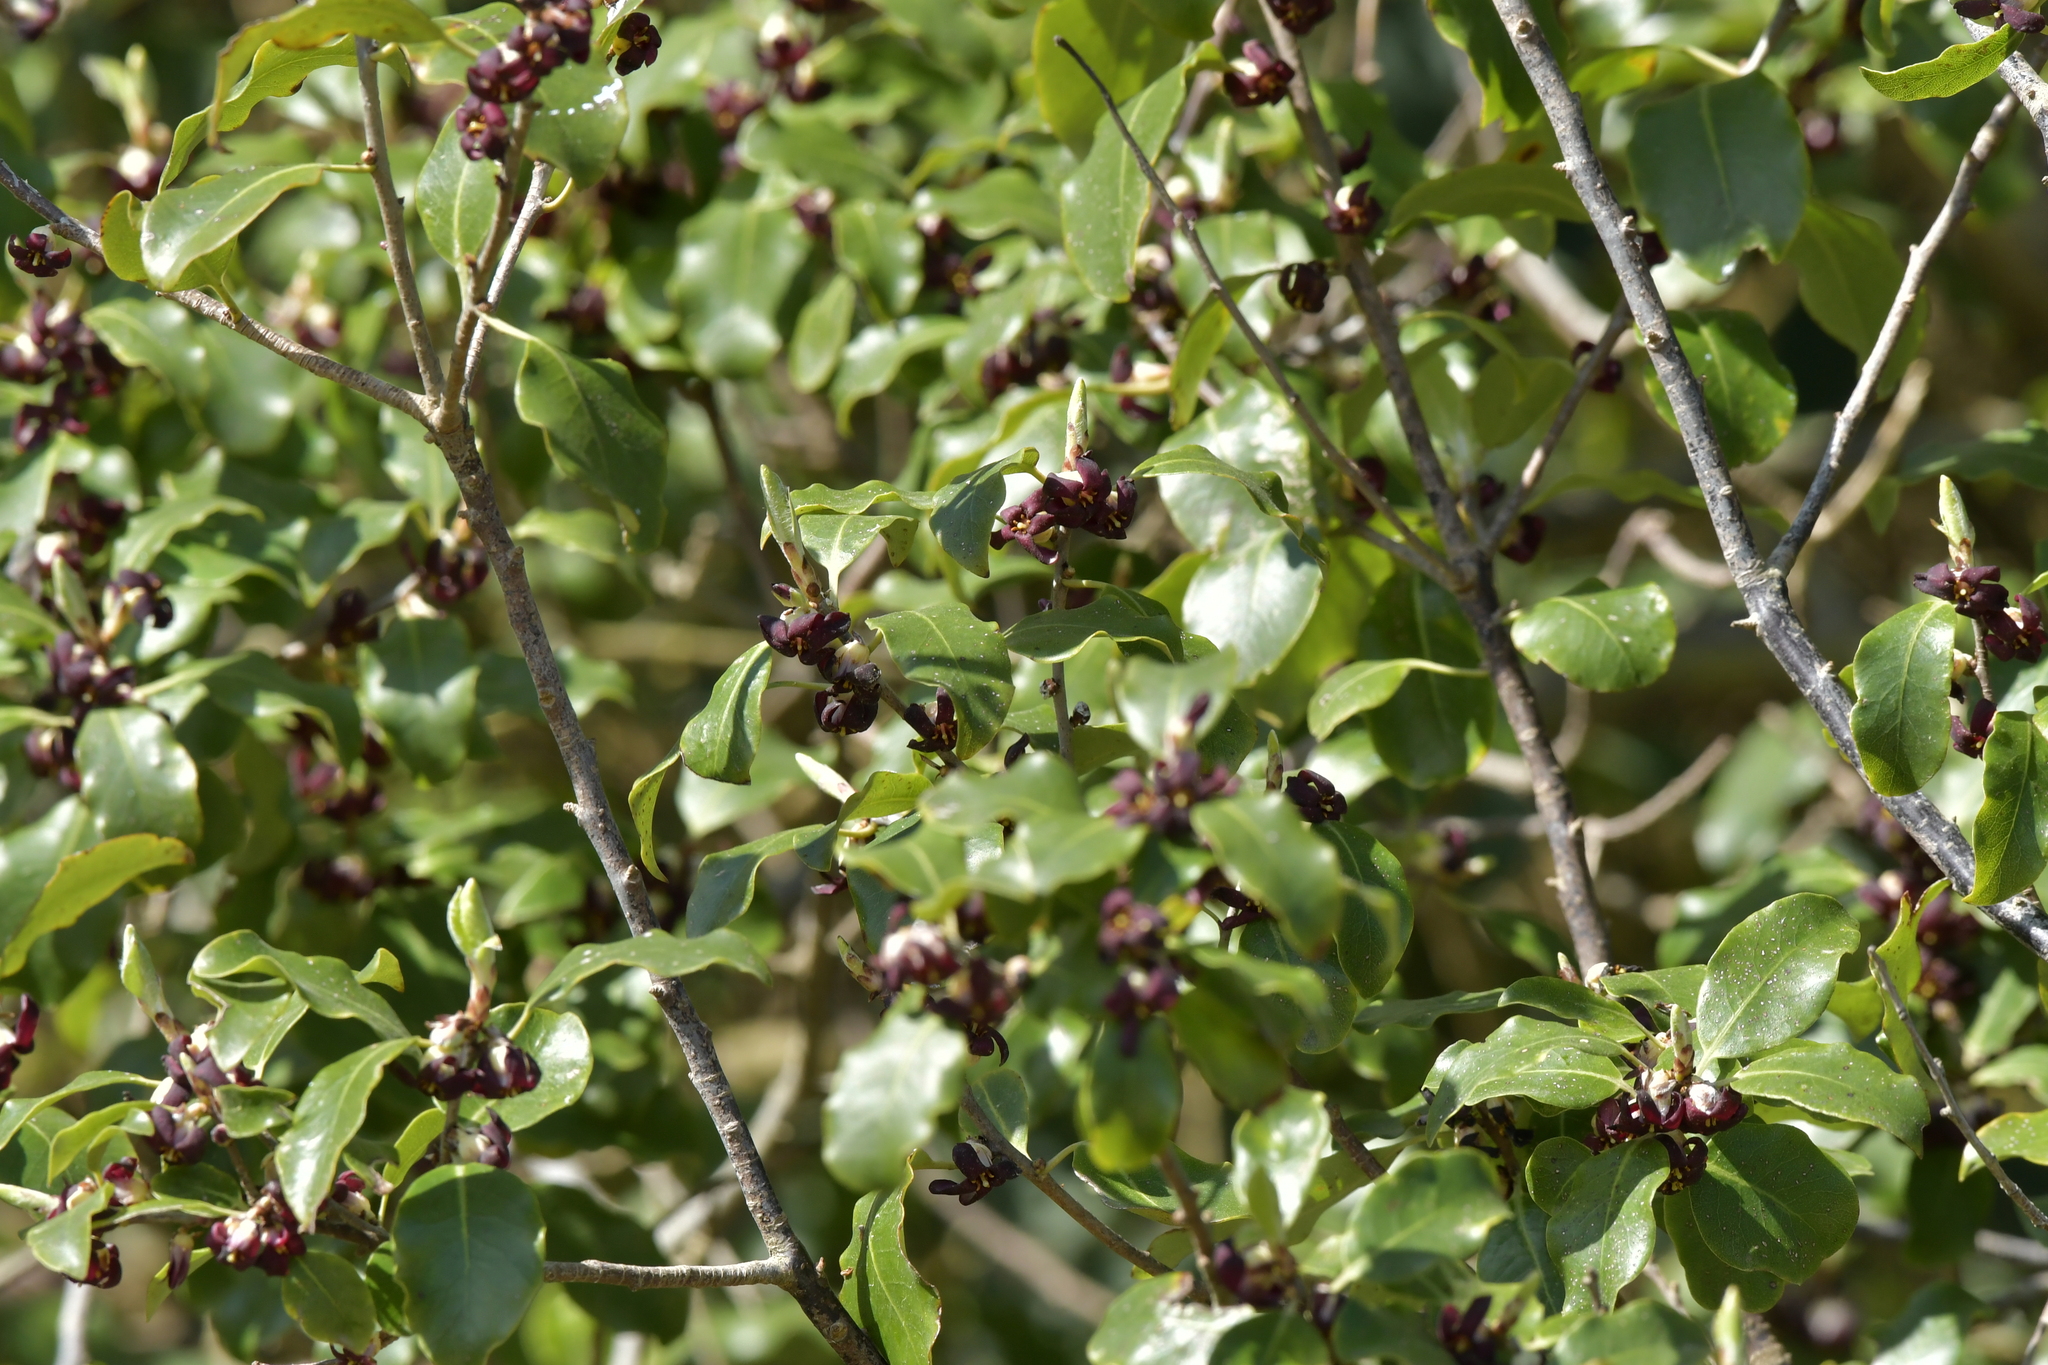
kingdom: Plantae
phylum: Tracheophyta
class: Magnoliopsida
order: Apiales
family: Pittosporaceae
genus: Pittosporum
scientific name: Pittosporum tenuifolium
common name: Kohuhu
